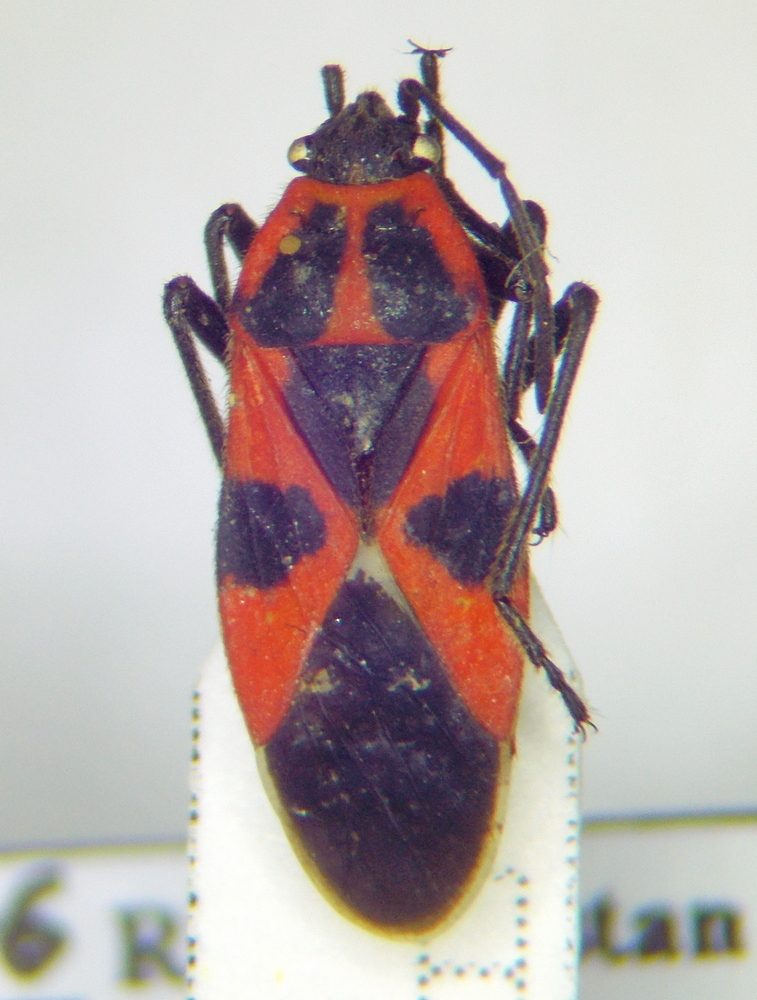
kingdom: Animalia
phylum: Arthropoda
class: Insecta
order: Hemiptera
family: Lygaeidae
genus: Tropidothorax
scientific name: Tropidothorax leucopterus
